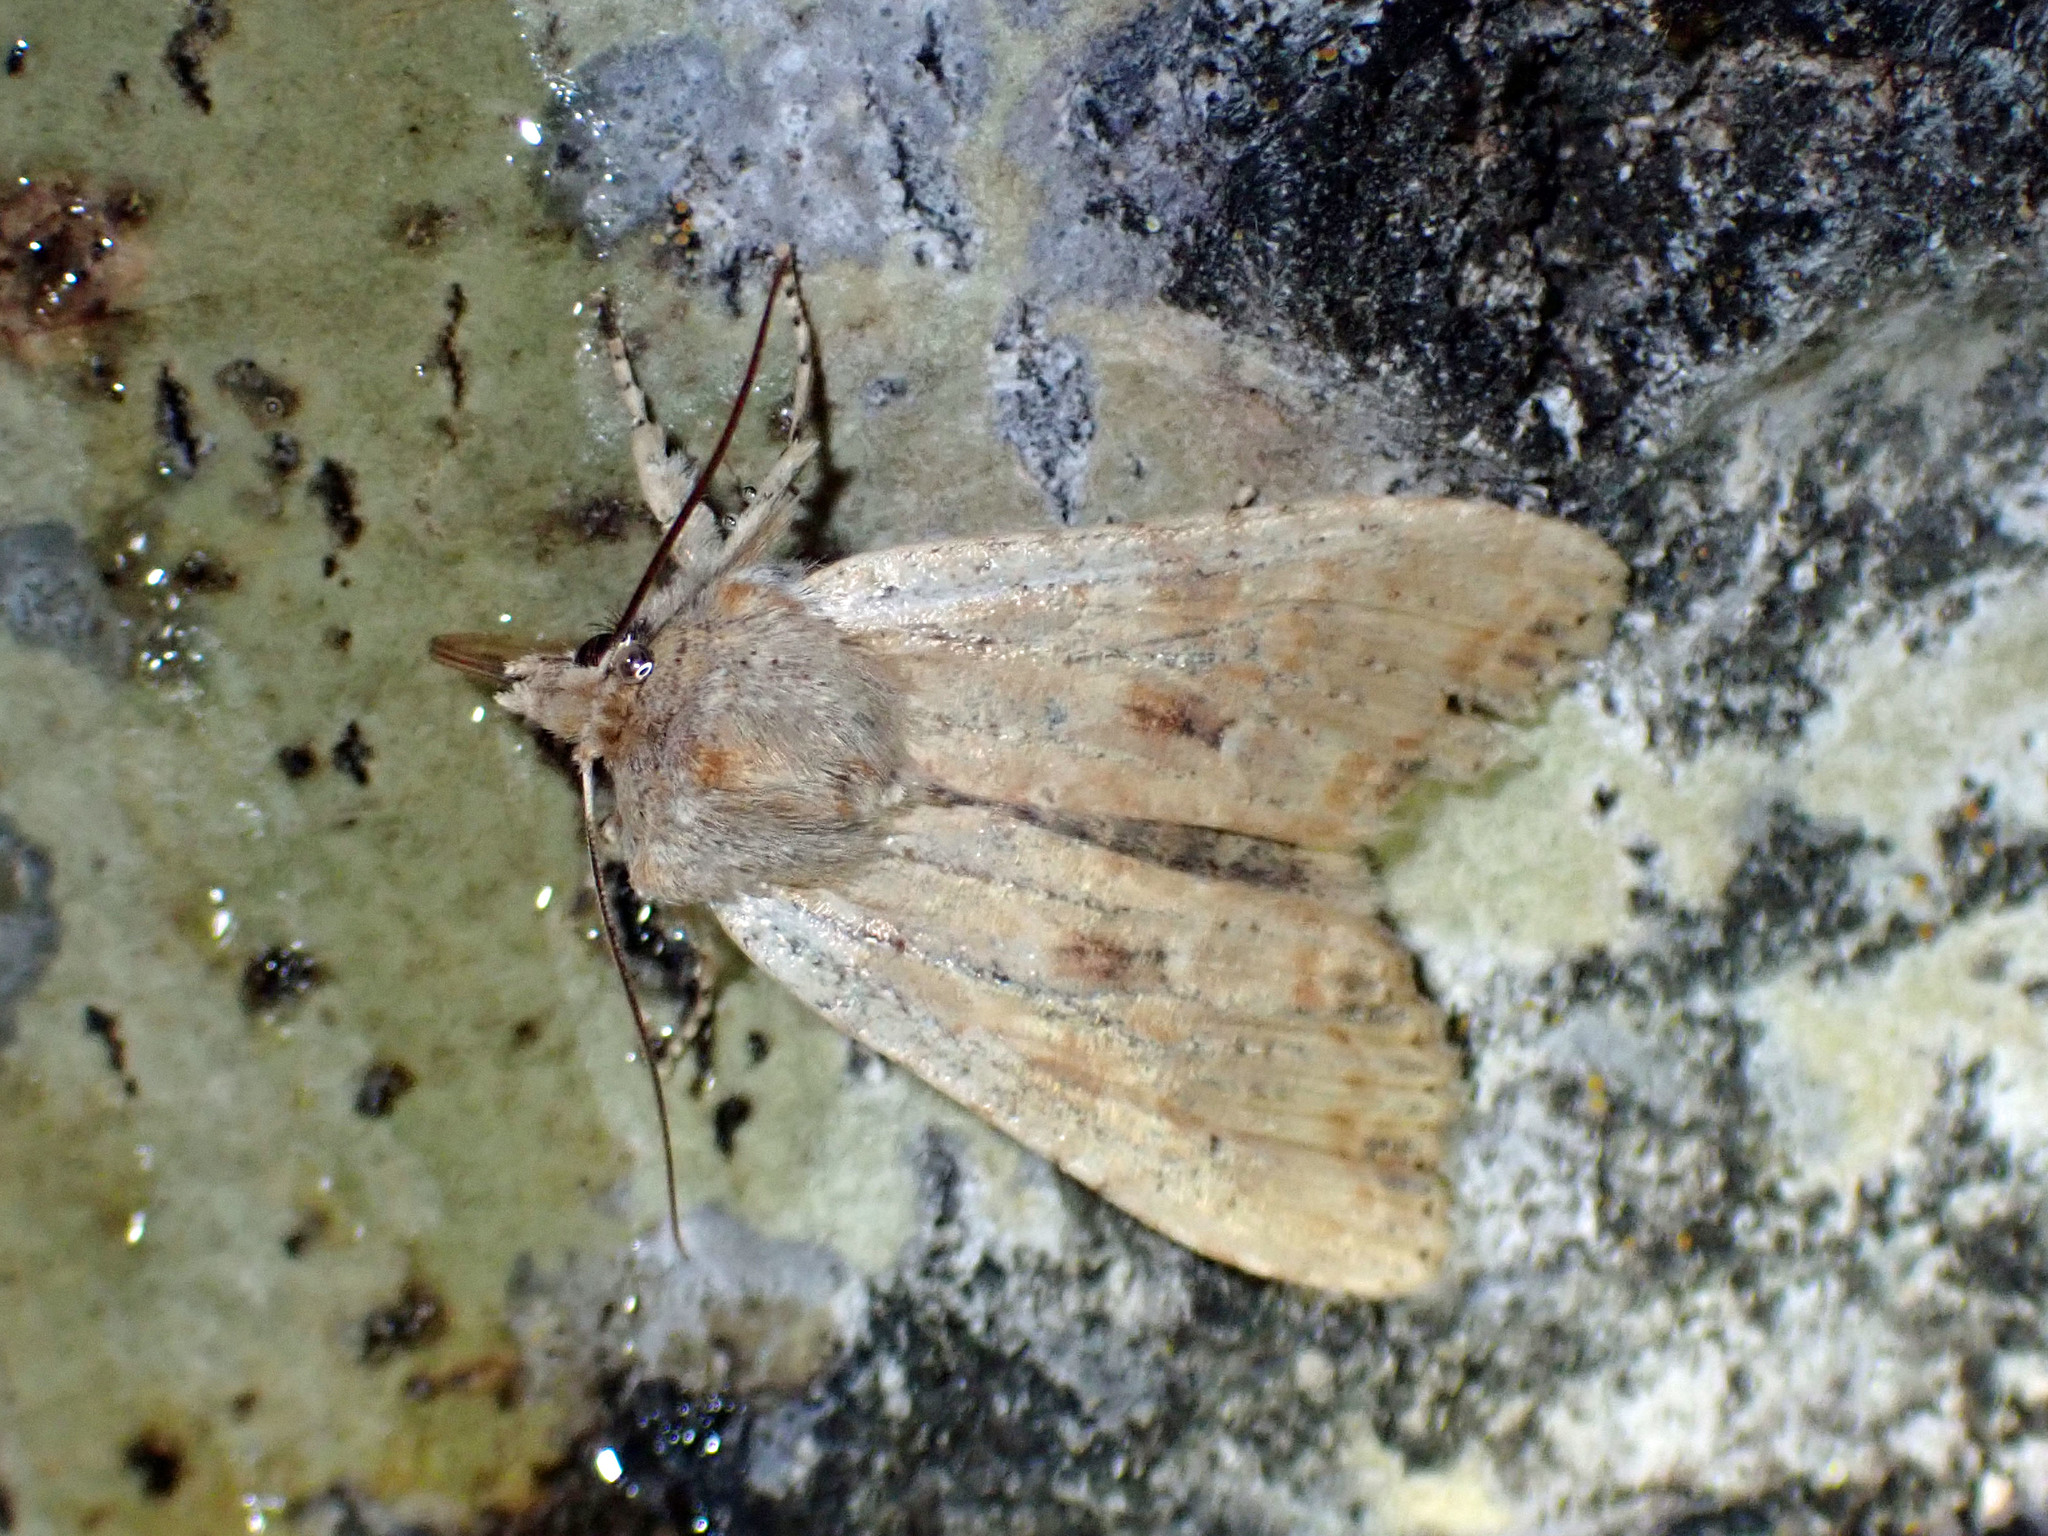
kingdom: Animalia
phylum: Arthropoda
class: Insecta
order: Lepidoptera
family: Noctuidae
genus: Lithophane
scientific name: Lithophane innominata
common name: Nameless pinion moth
